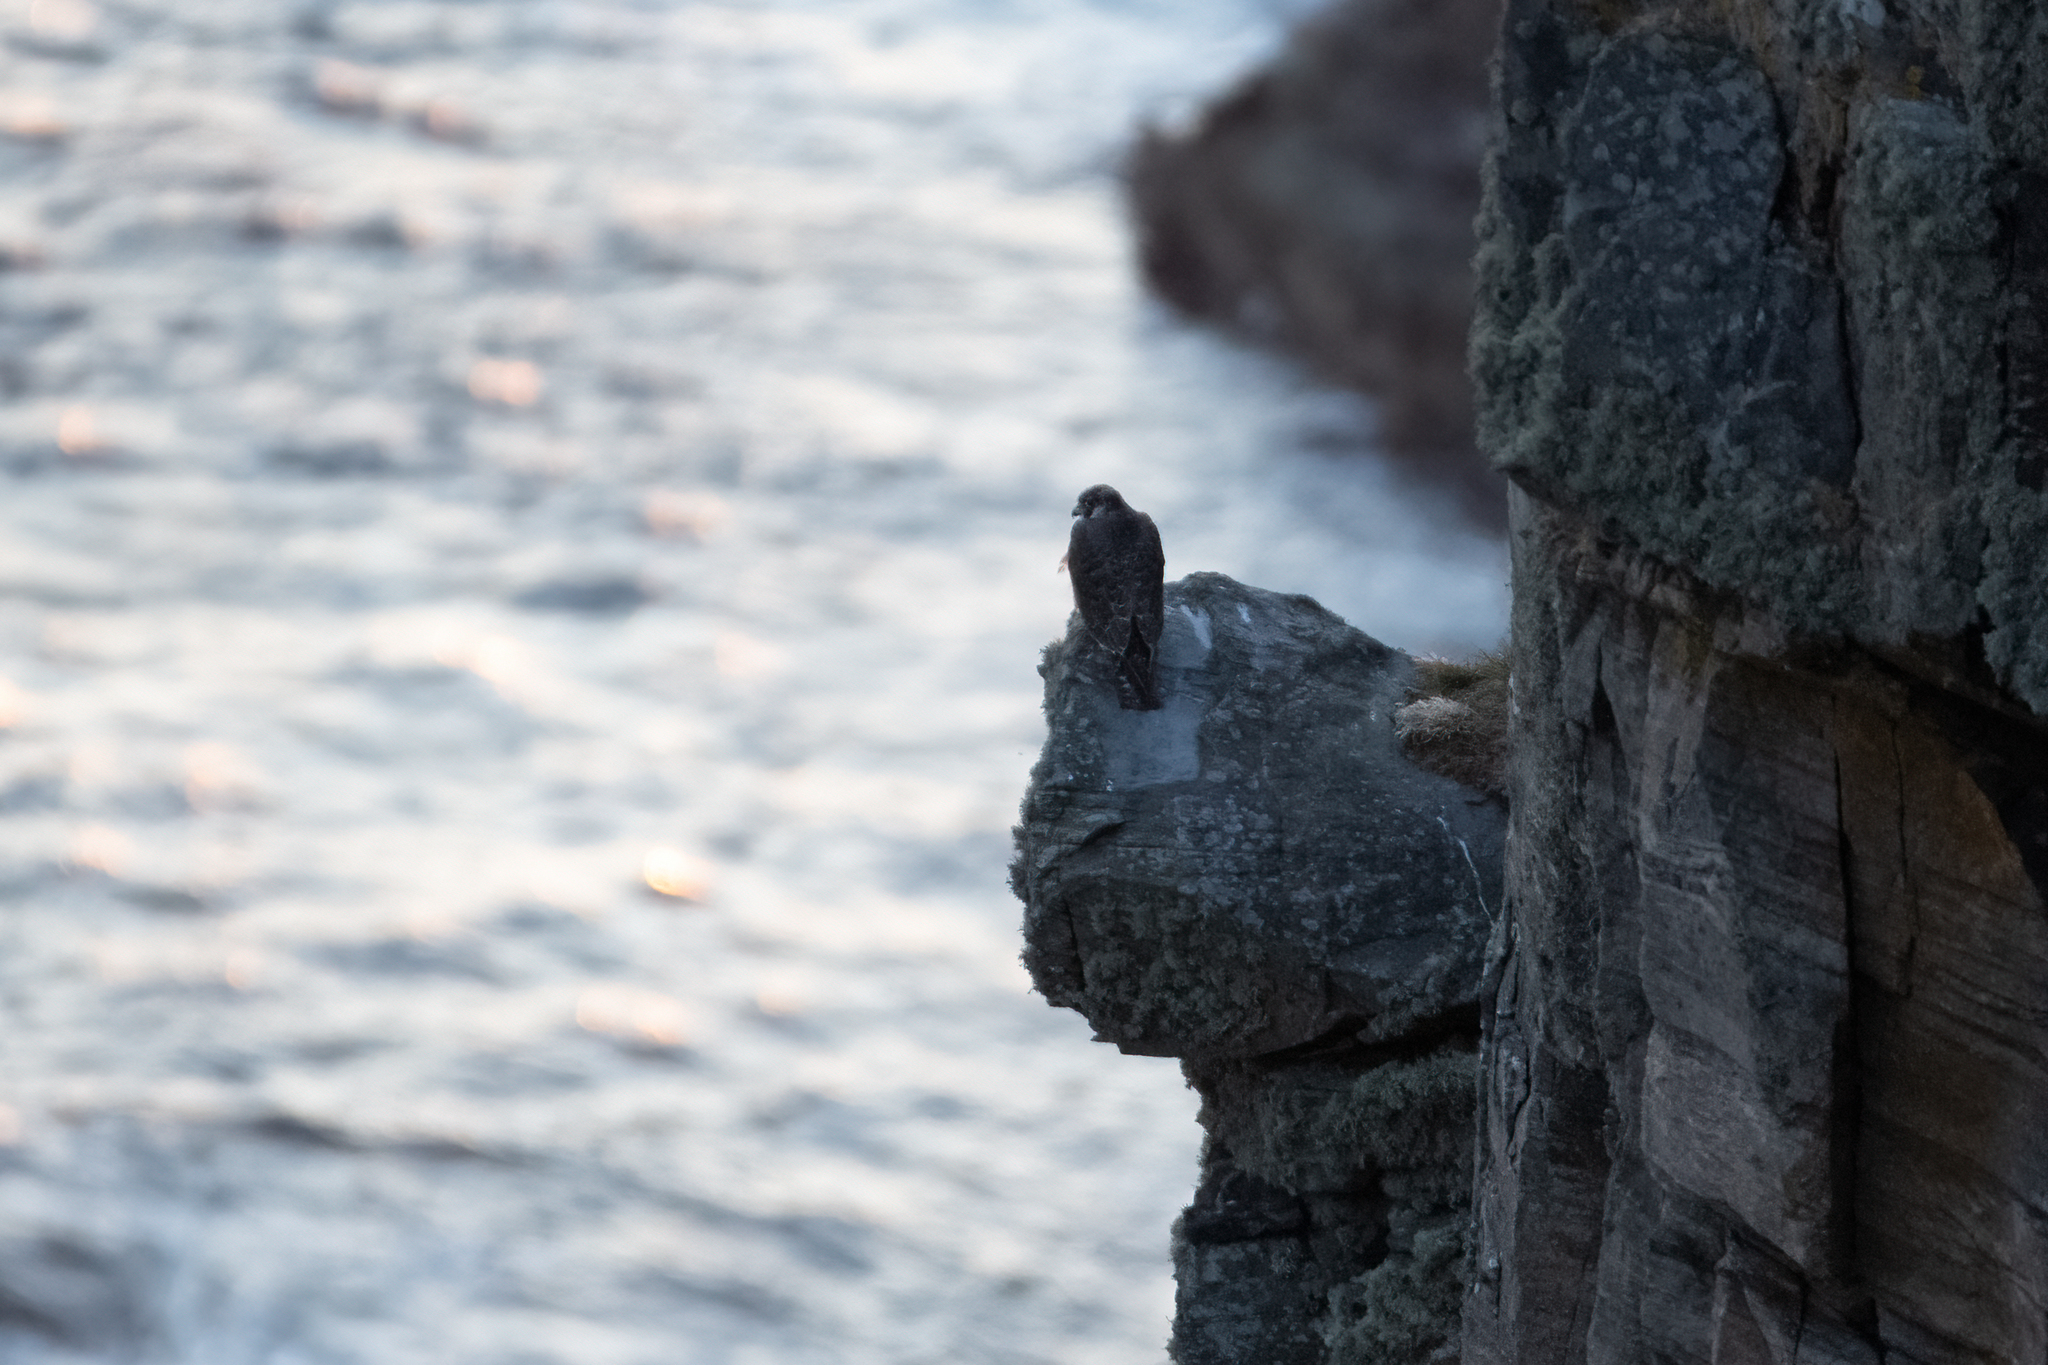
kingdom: Animalia
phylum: Chordata
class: Aves
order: Falconiformes
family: Falconidae
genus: Falco
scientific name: Falco peregrinus
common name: Peregrine falcon
